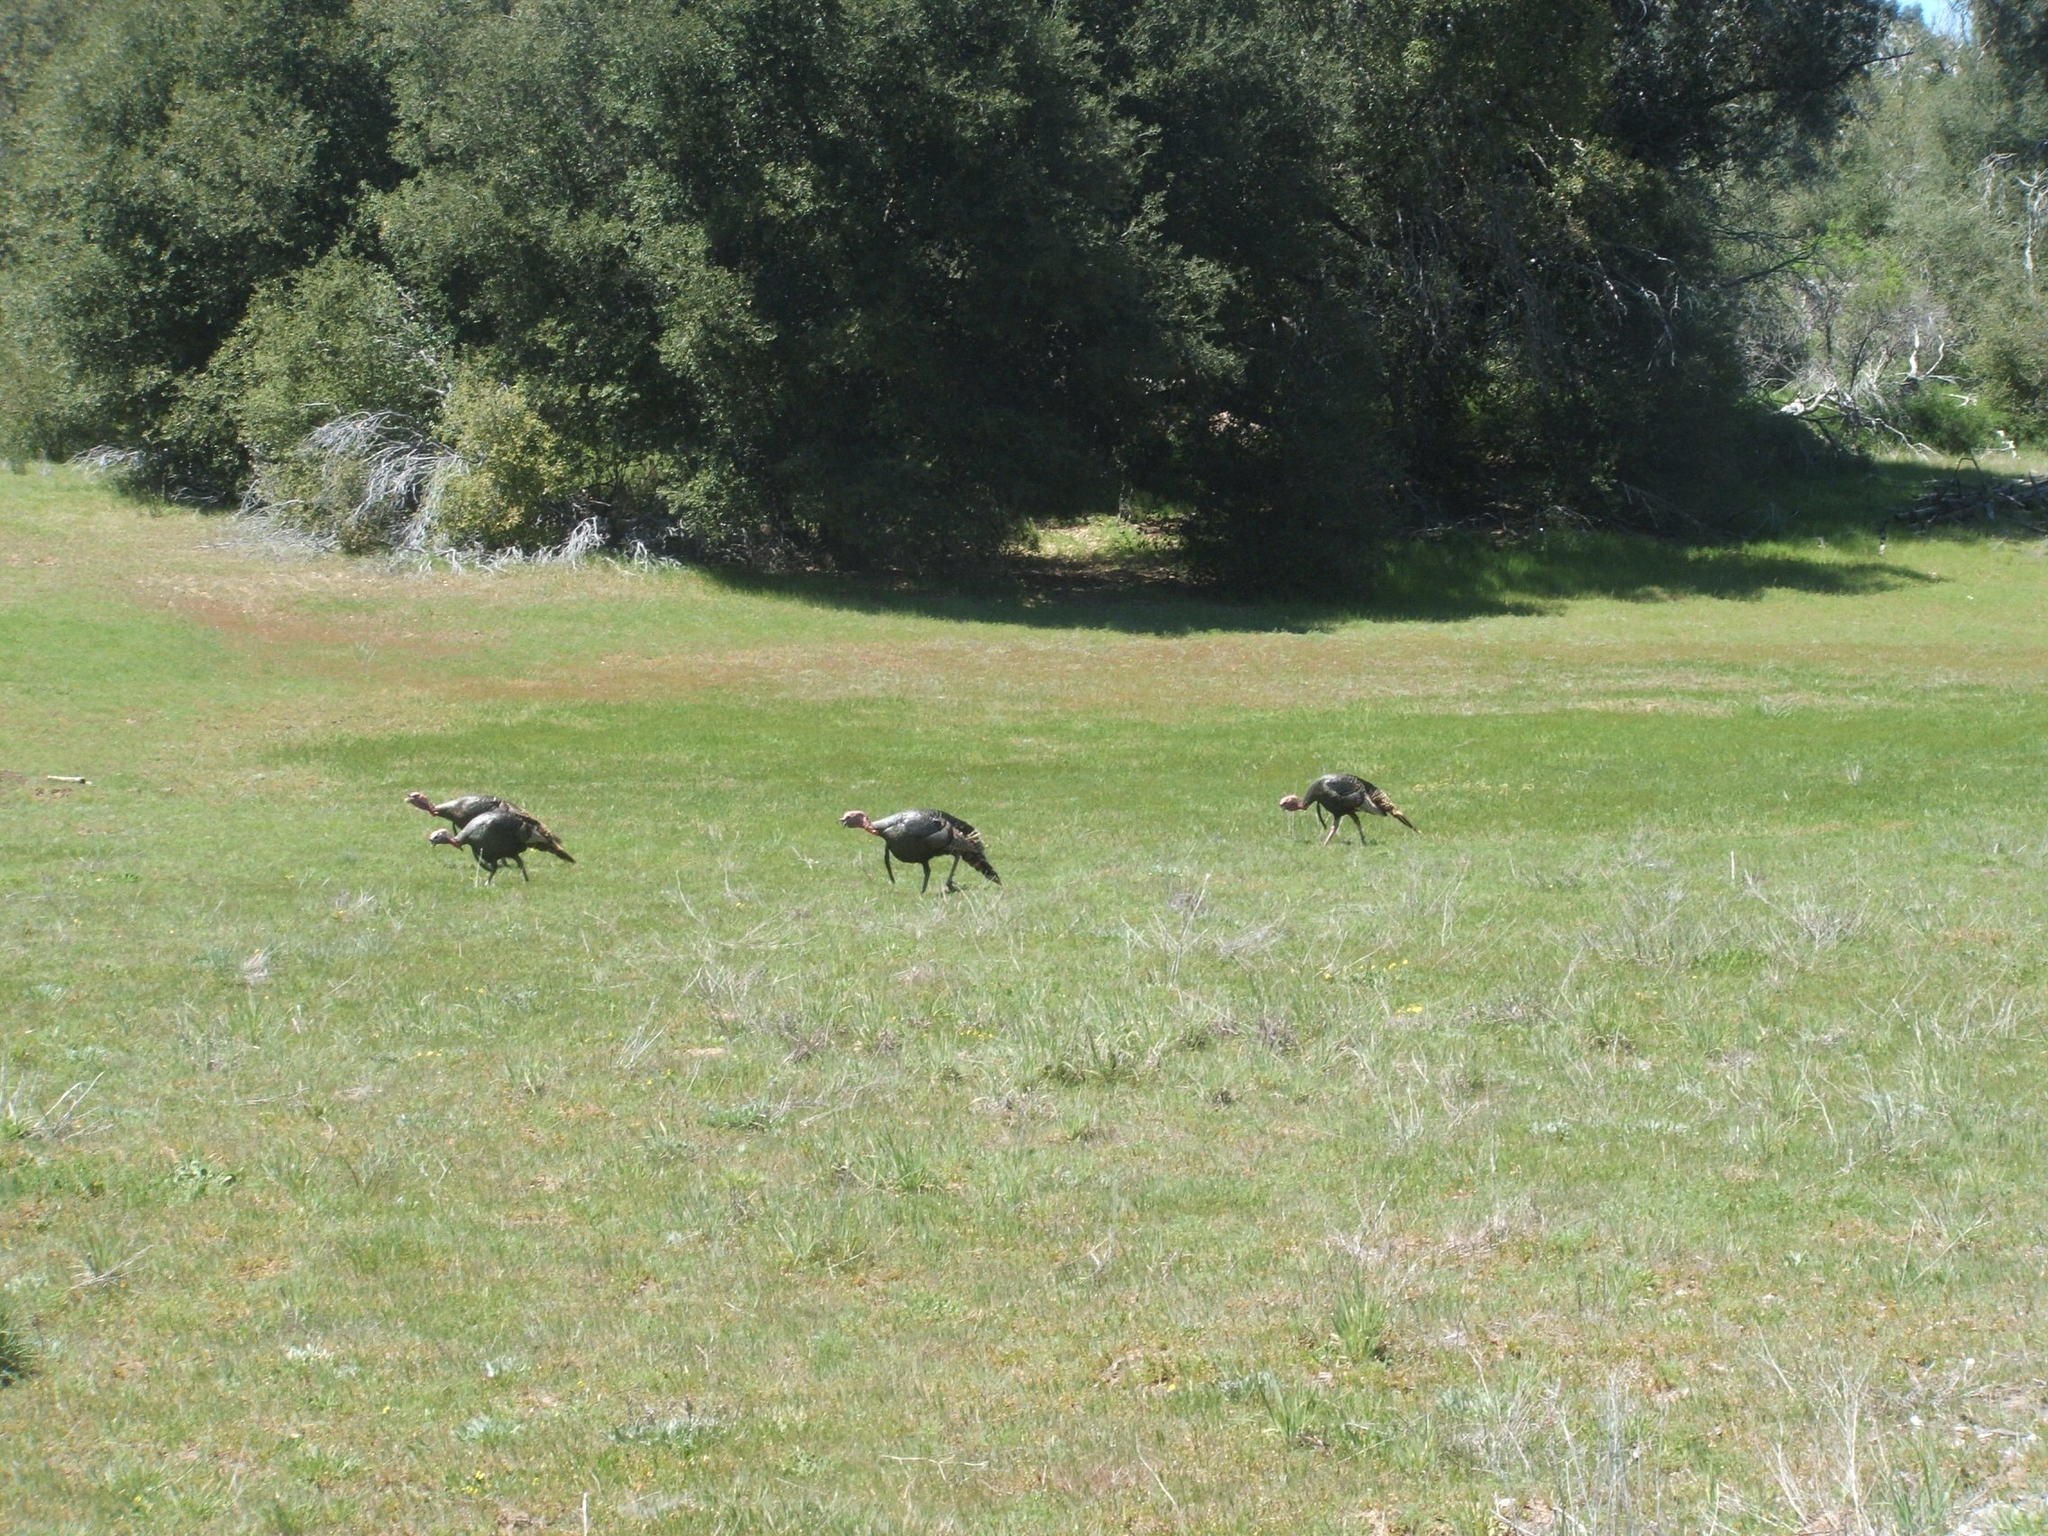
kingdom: Animalia
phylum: Chordata
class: Aves
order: Galliformes
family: Phasianidae
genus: Meleagris
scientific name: Meleagris gallopavo
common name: Wild turkey
